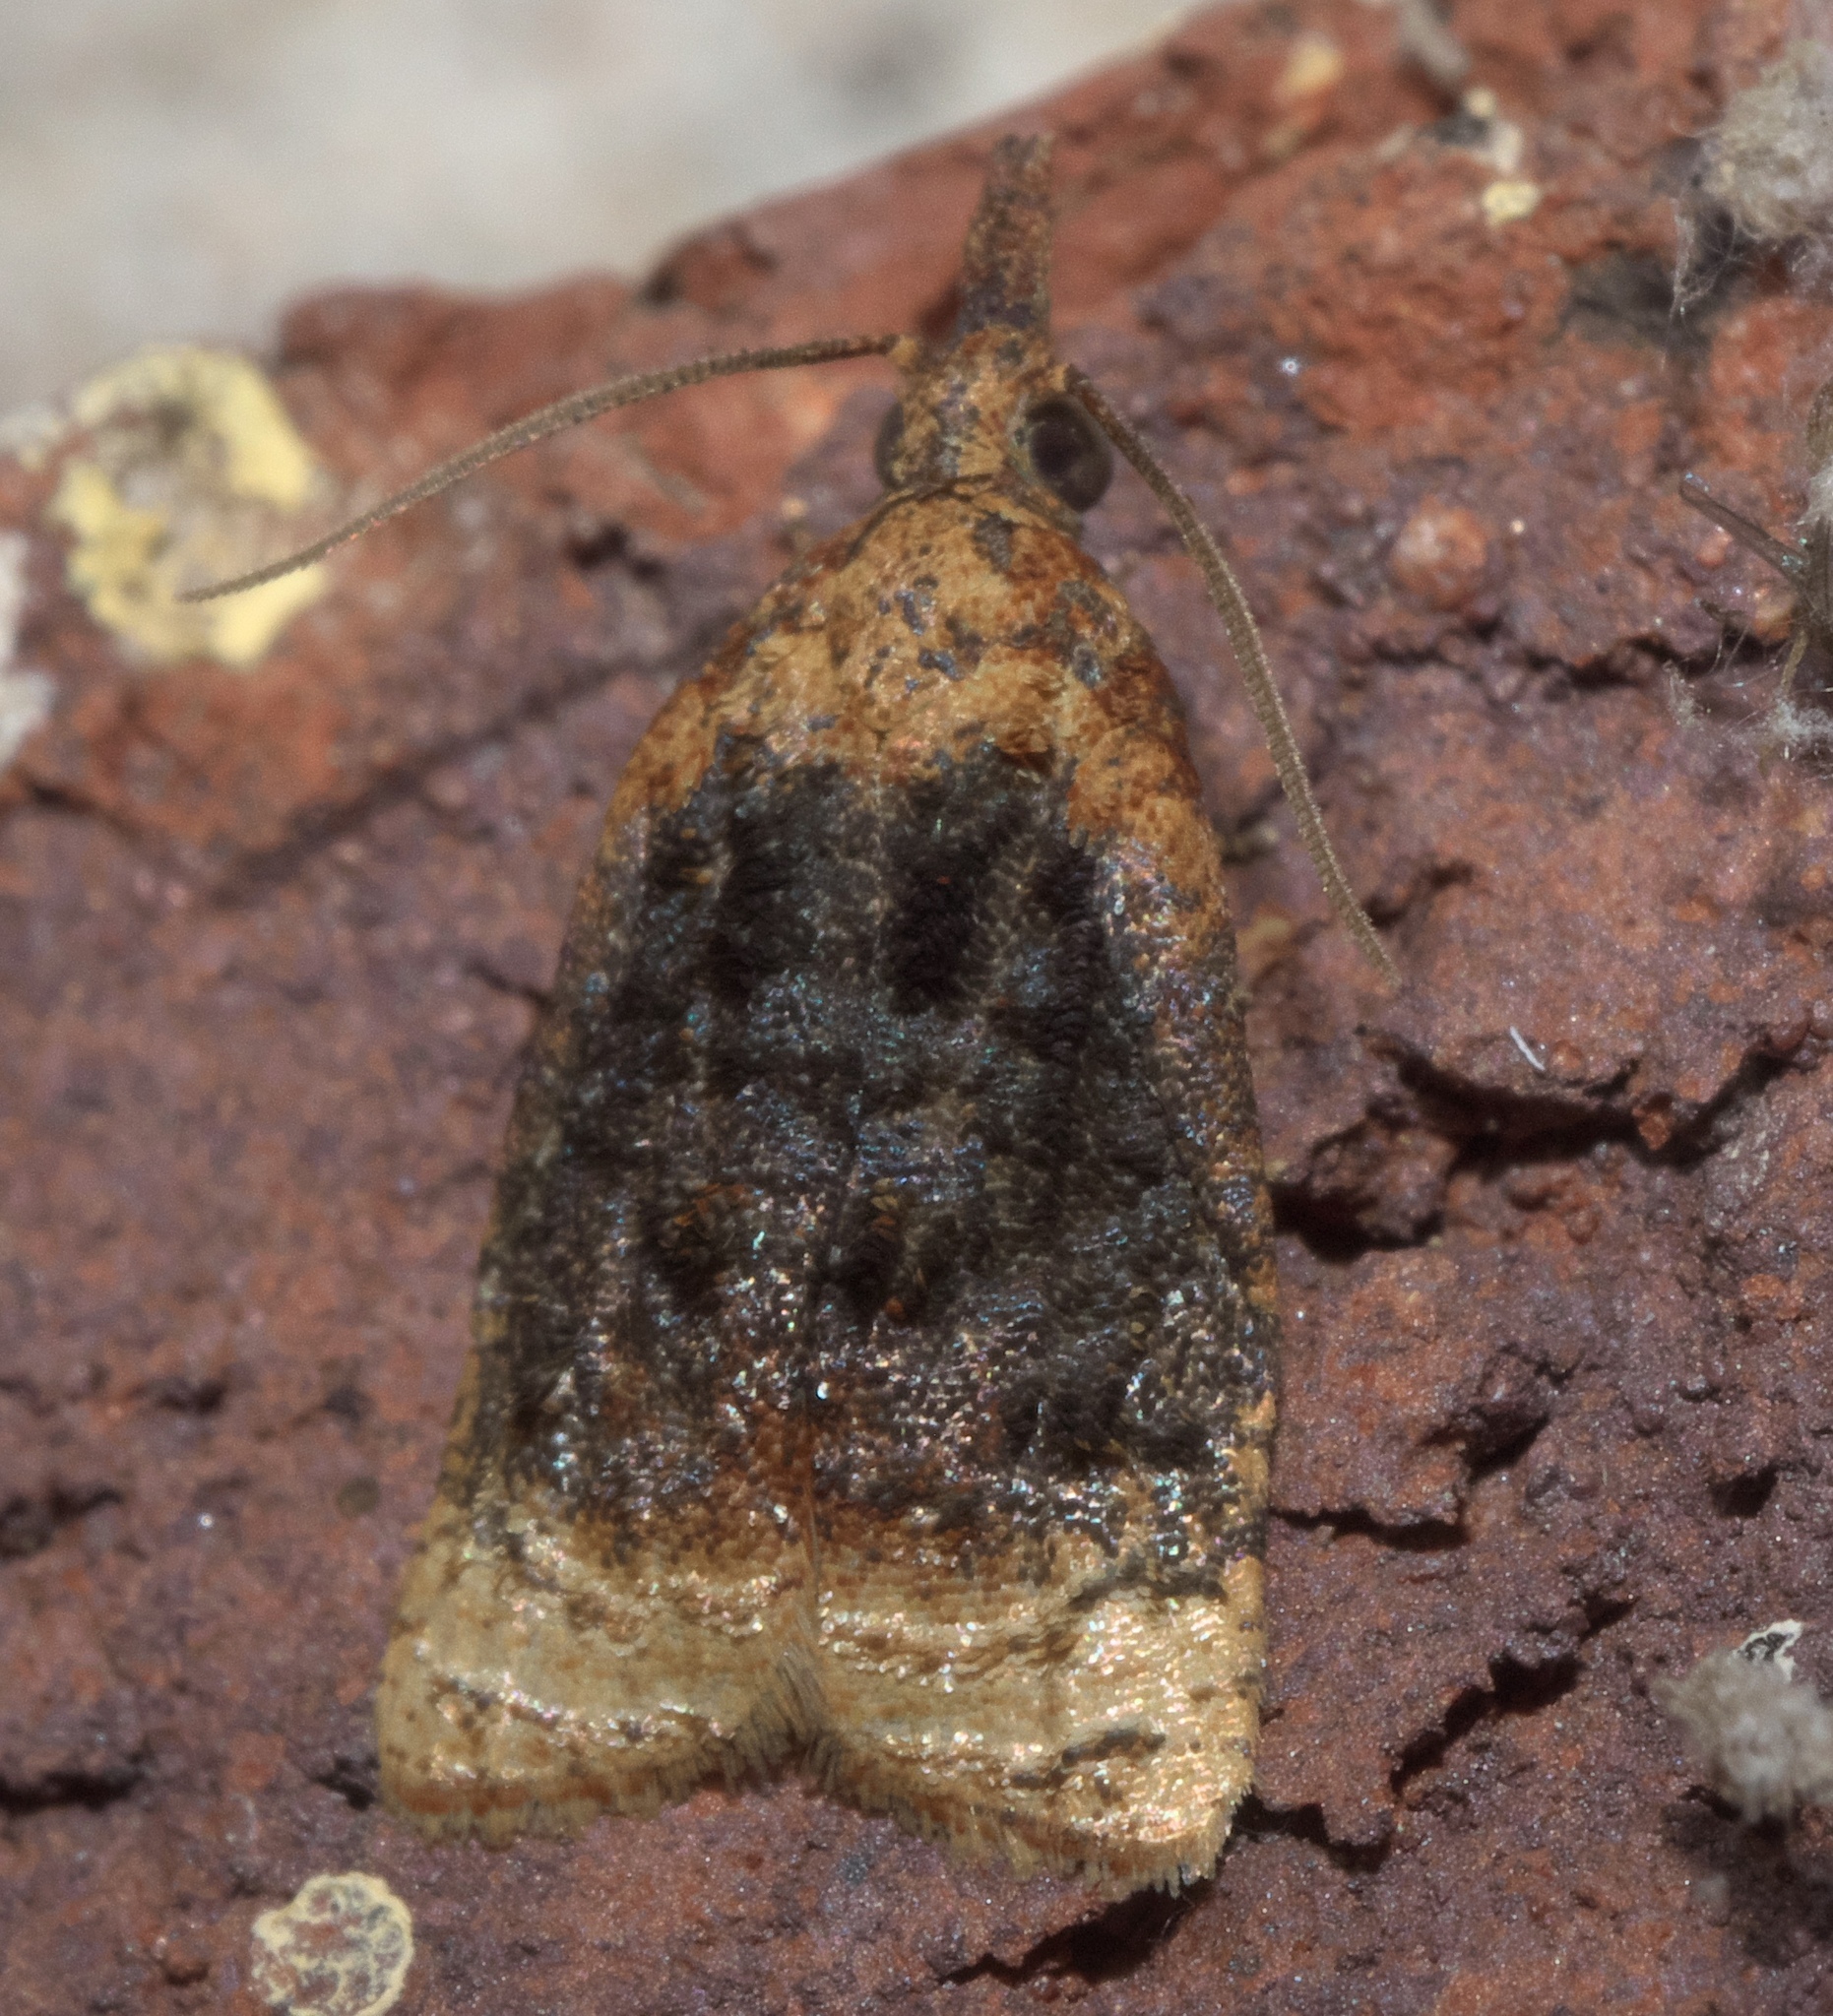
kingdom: Animalia
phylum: Arthropoda
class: Insecta
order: Lepidoptera
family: Tortricidae
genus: Platynota
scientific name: Platynota flavedana
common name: Black-shaded platynota moth
